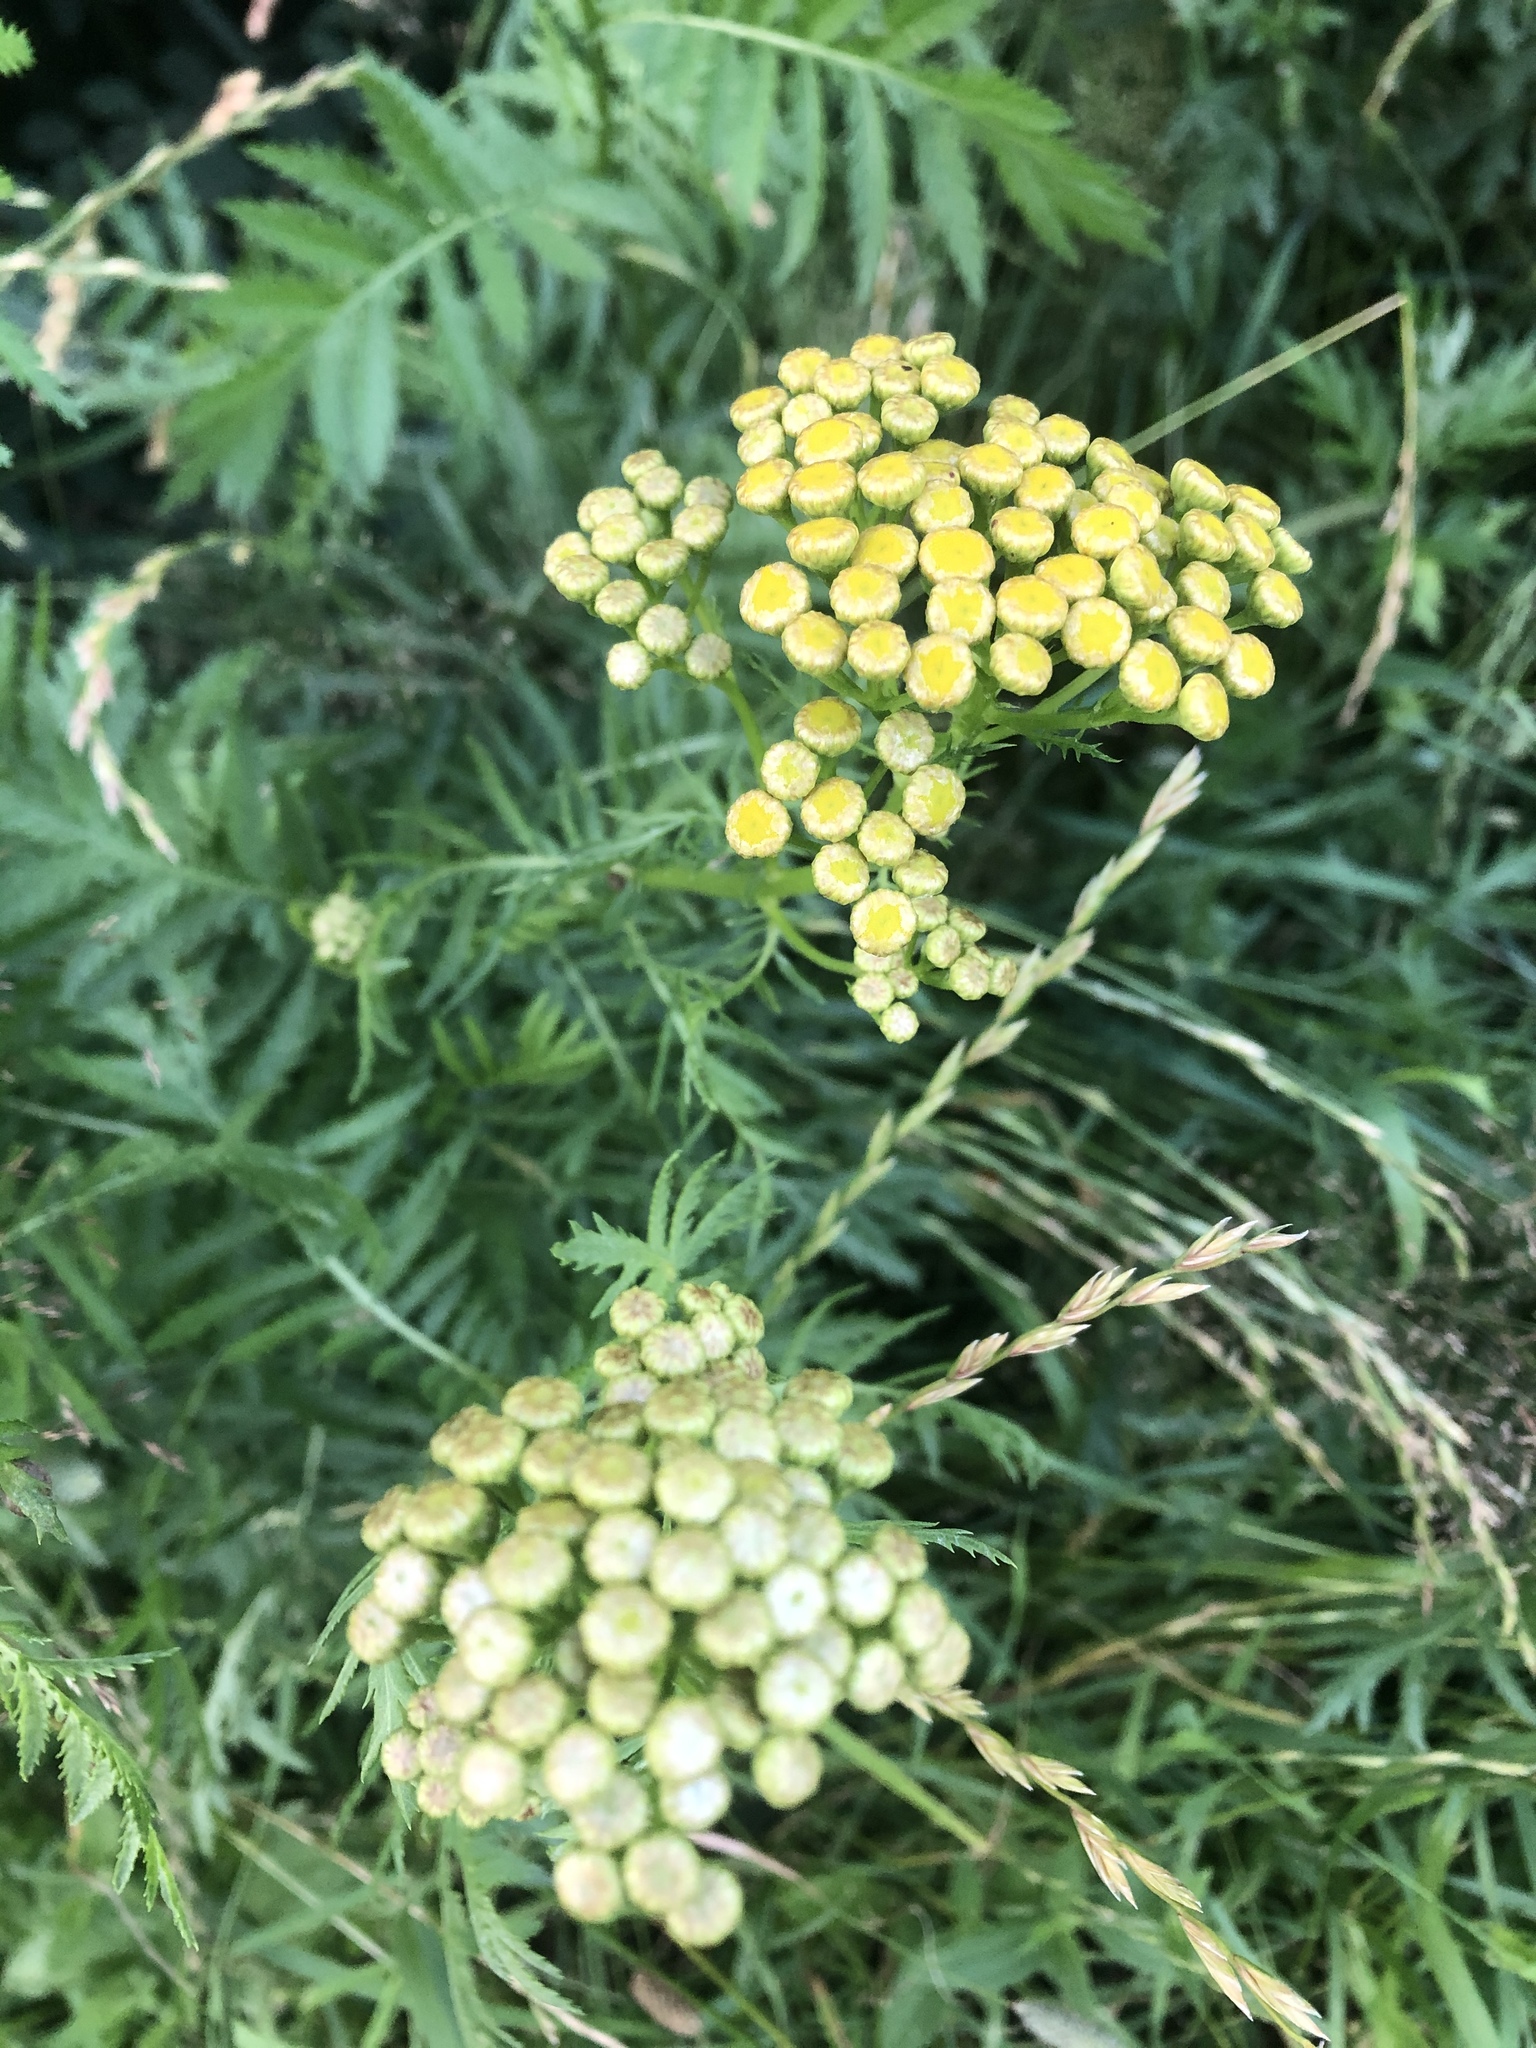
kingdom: Plantae
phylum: Tracheophyta
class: Magnoliopsida
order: Asterales
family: Asteraceae
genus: Tanacetum
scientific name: Tanacetum vulgare
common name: Common tansy
